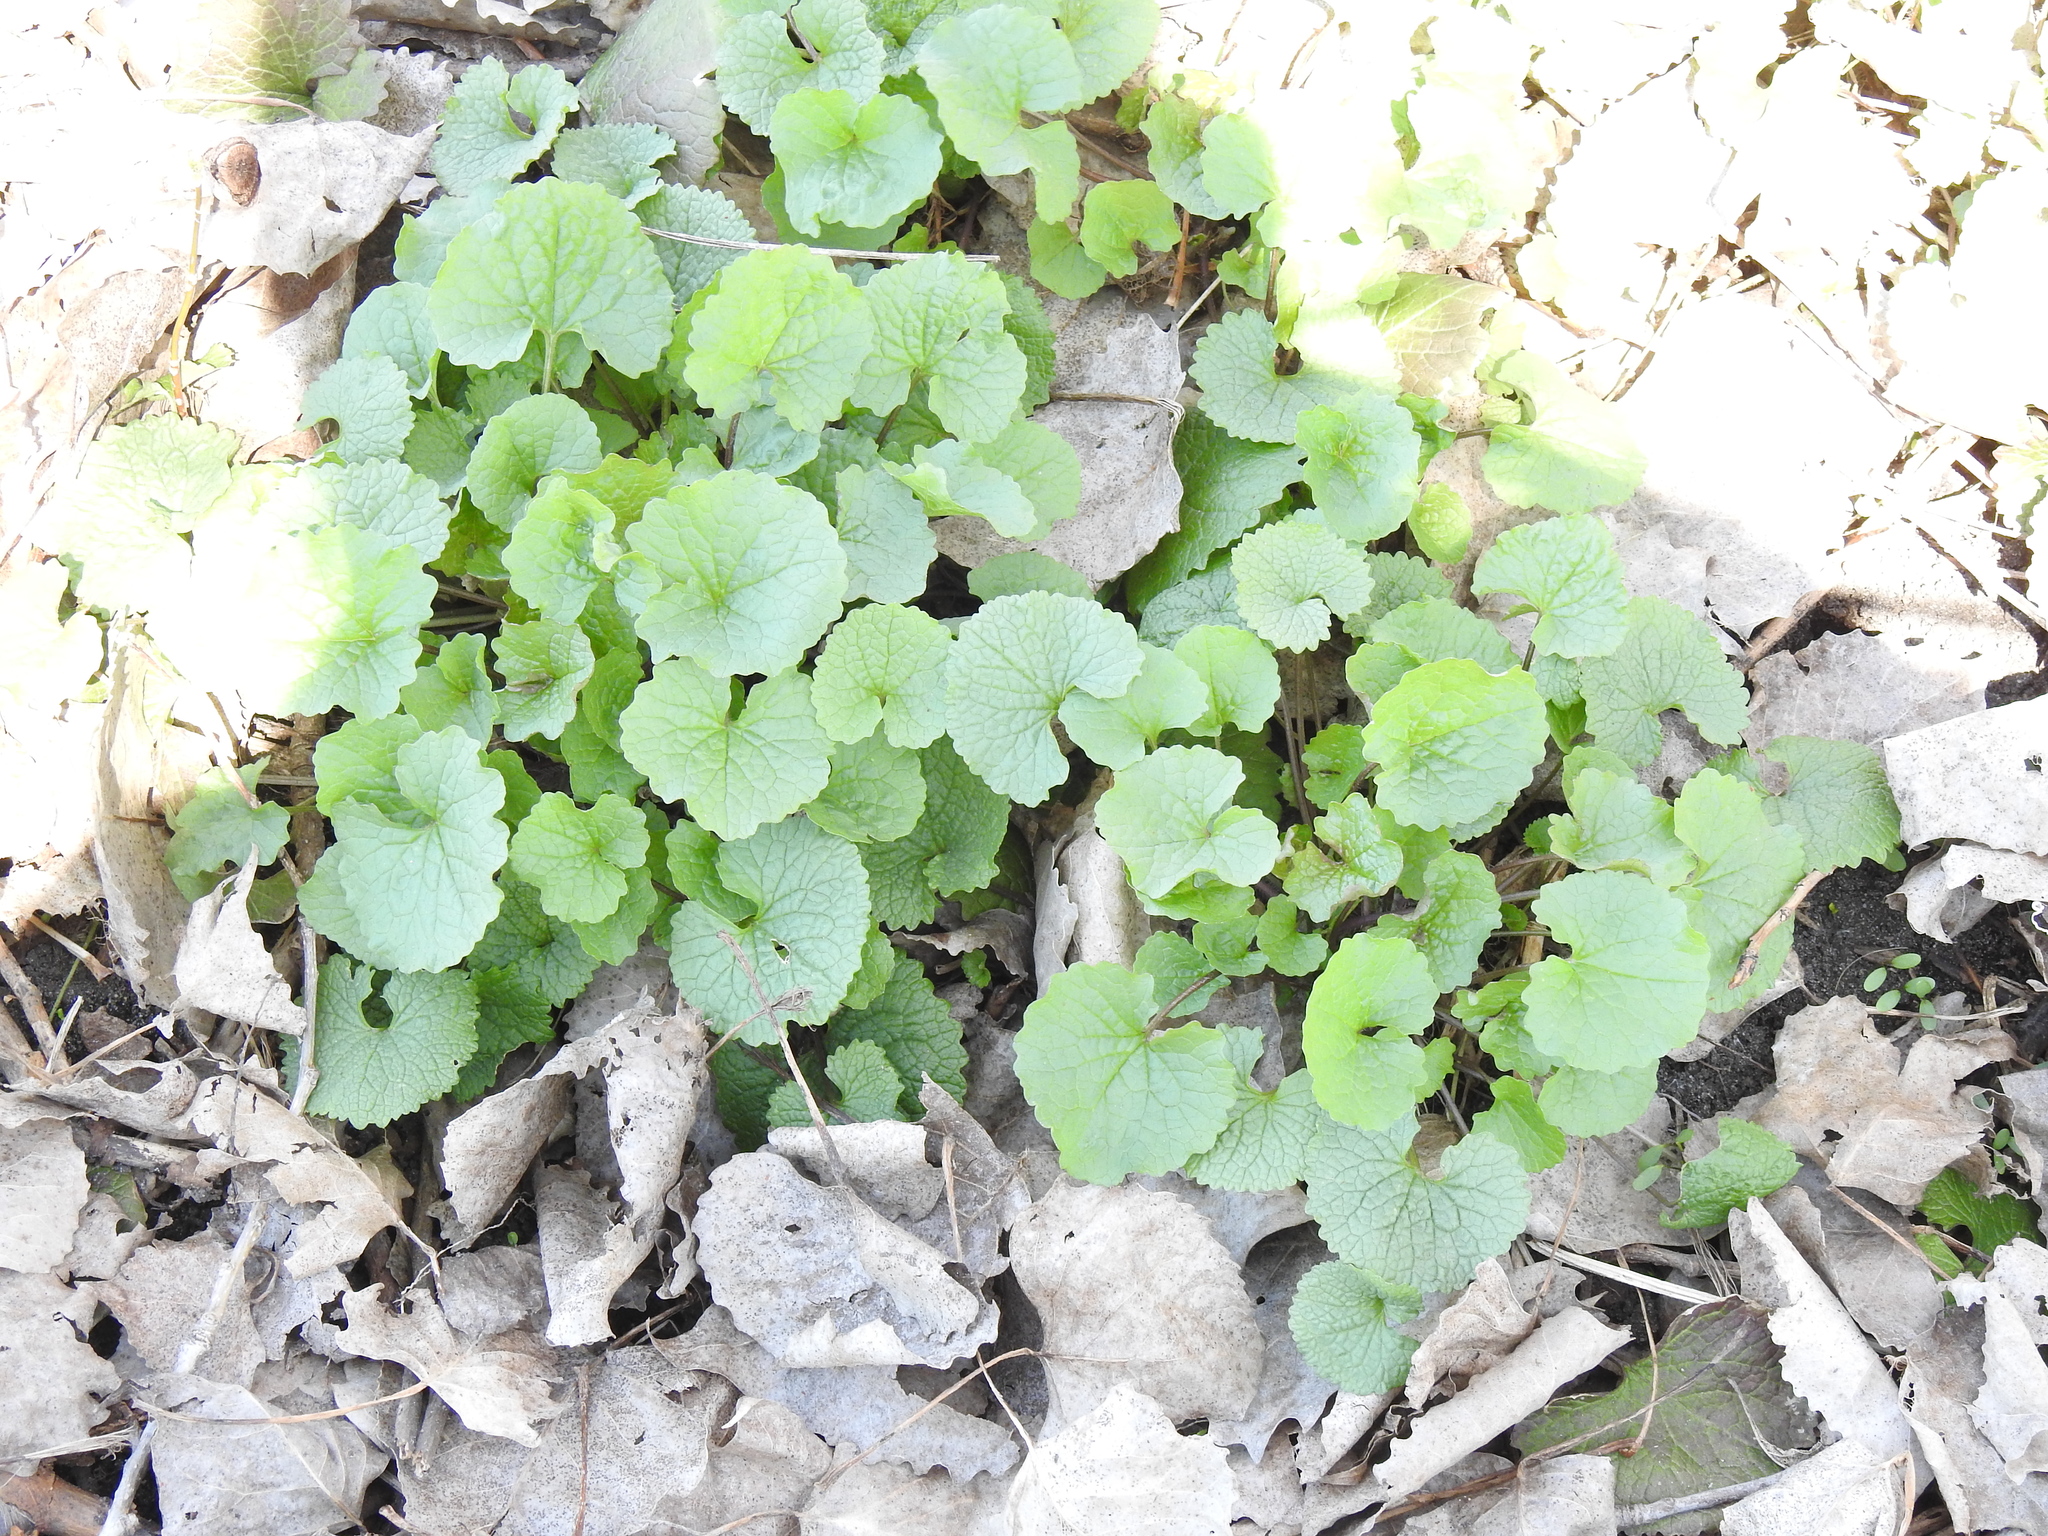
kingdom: Plantae
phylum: Tracheophyta
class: Magnoliopsida
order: Brassicales
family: Brassicaceae
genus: Alliaria
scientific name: Alliaria petiolata
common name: Garlic mustard
